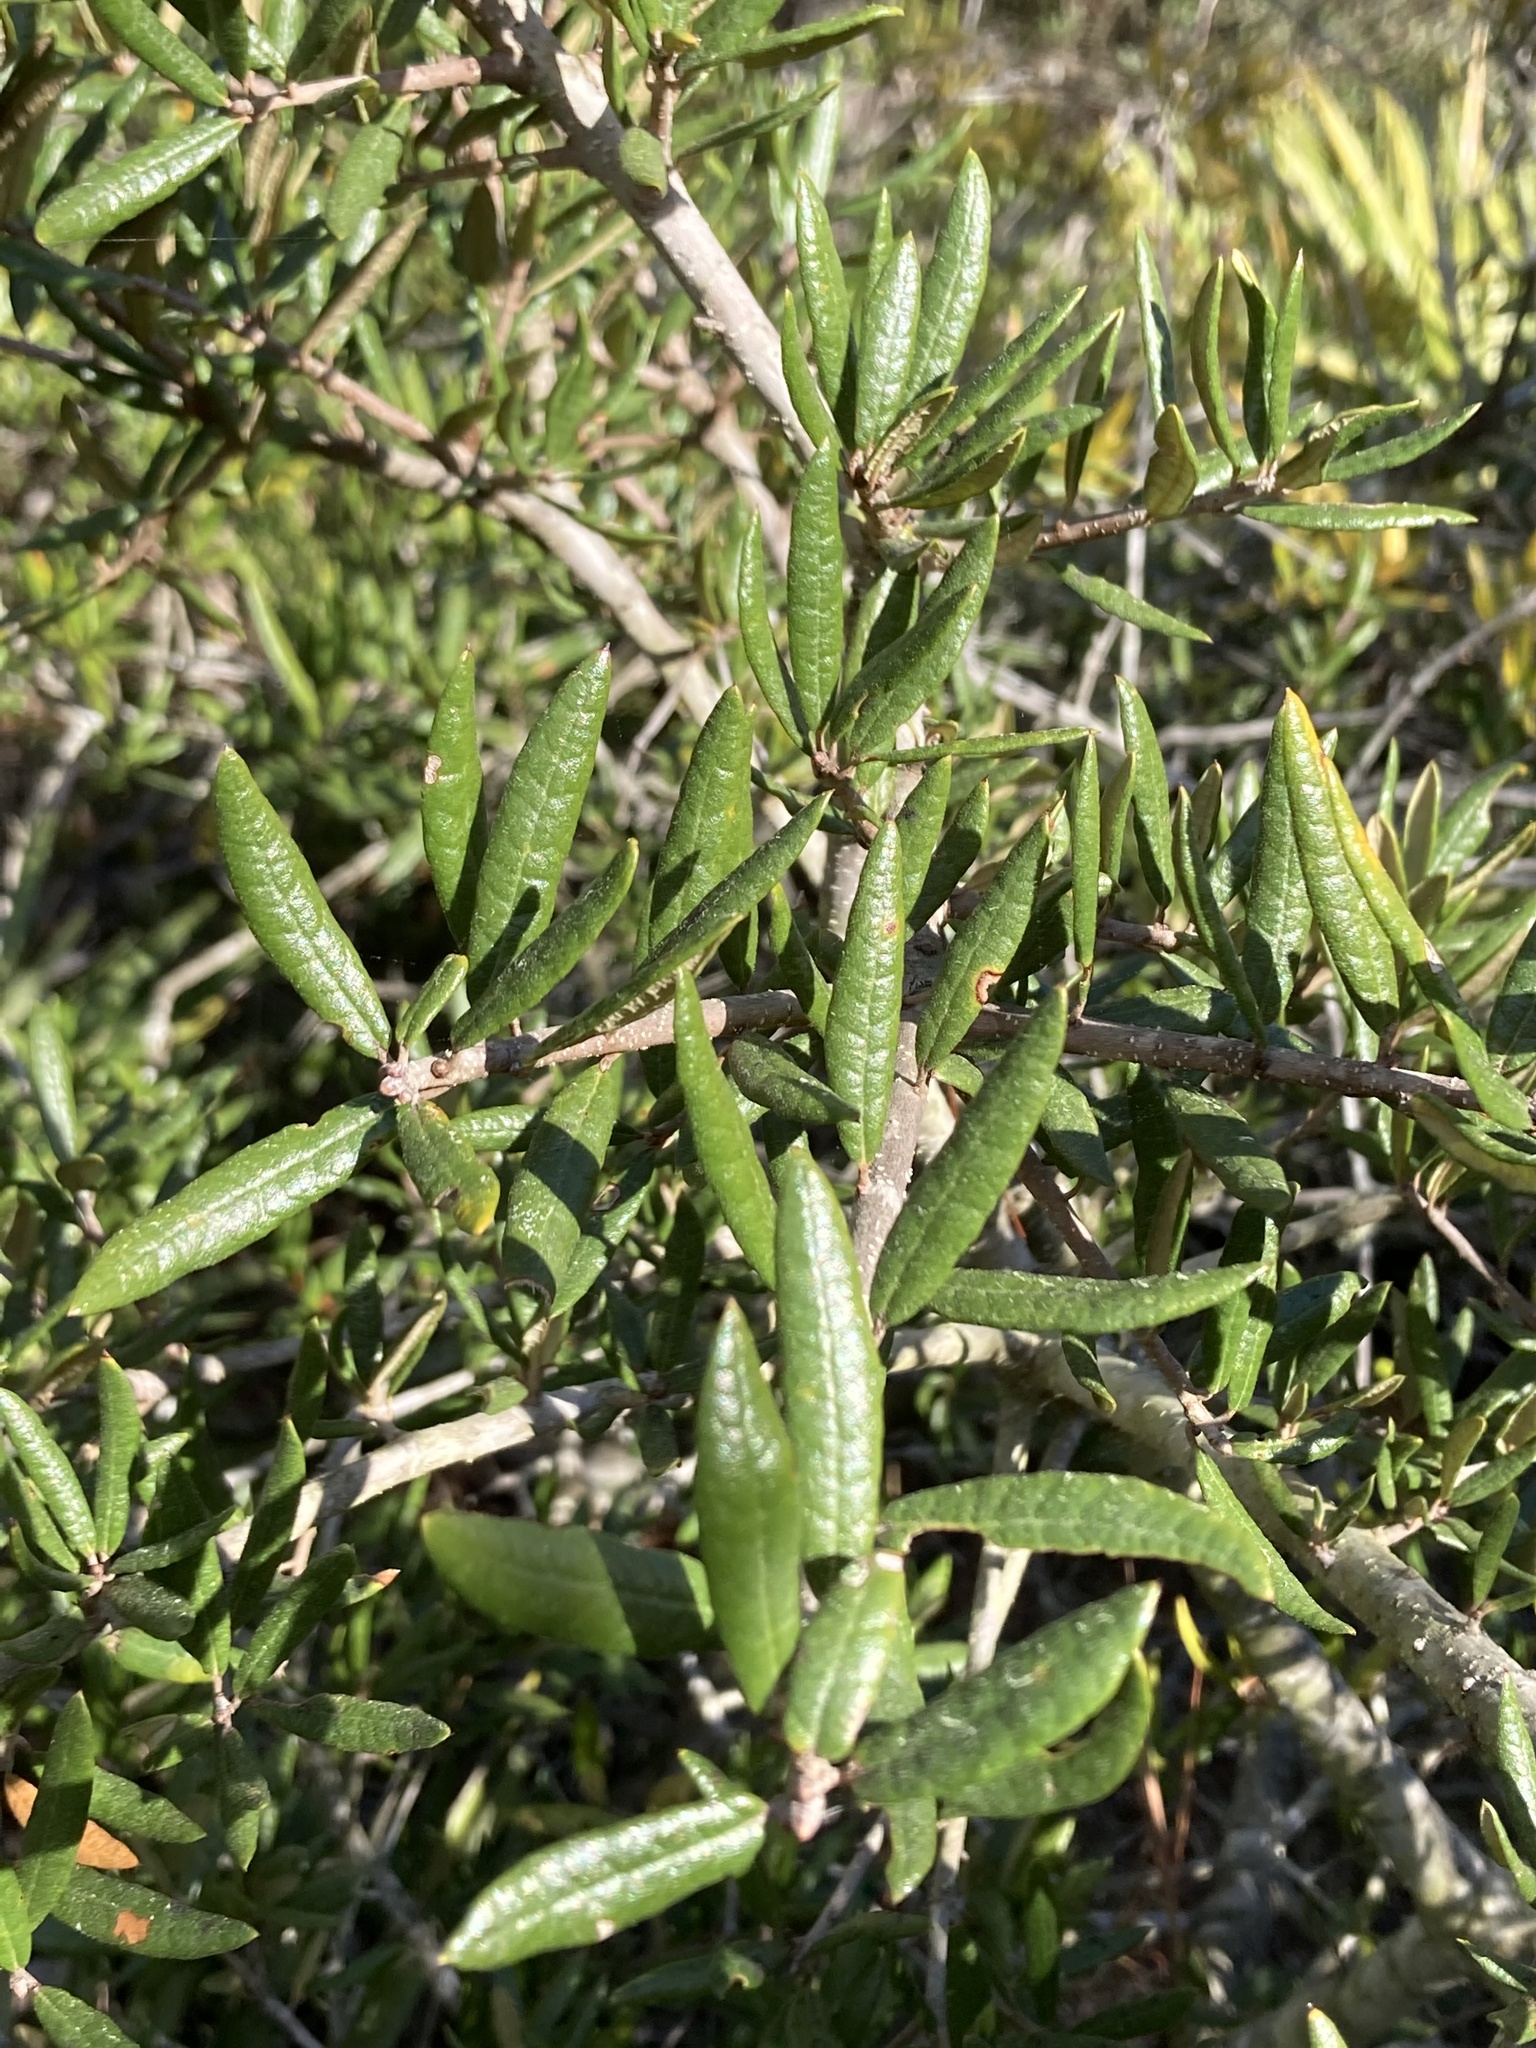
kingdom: Plantae
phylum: Tracheophyta
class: Magnoliopsida
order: Fagales
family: Fagaceae
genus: Quercus
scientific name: Quercus geminata
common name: Sand live oak
